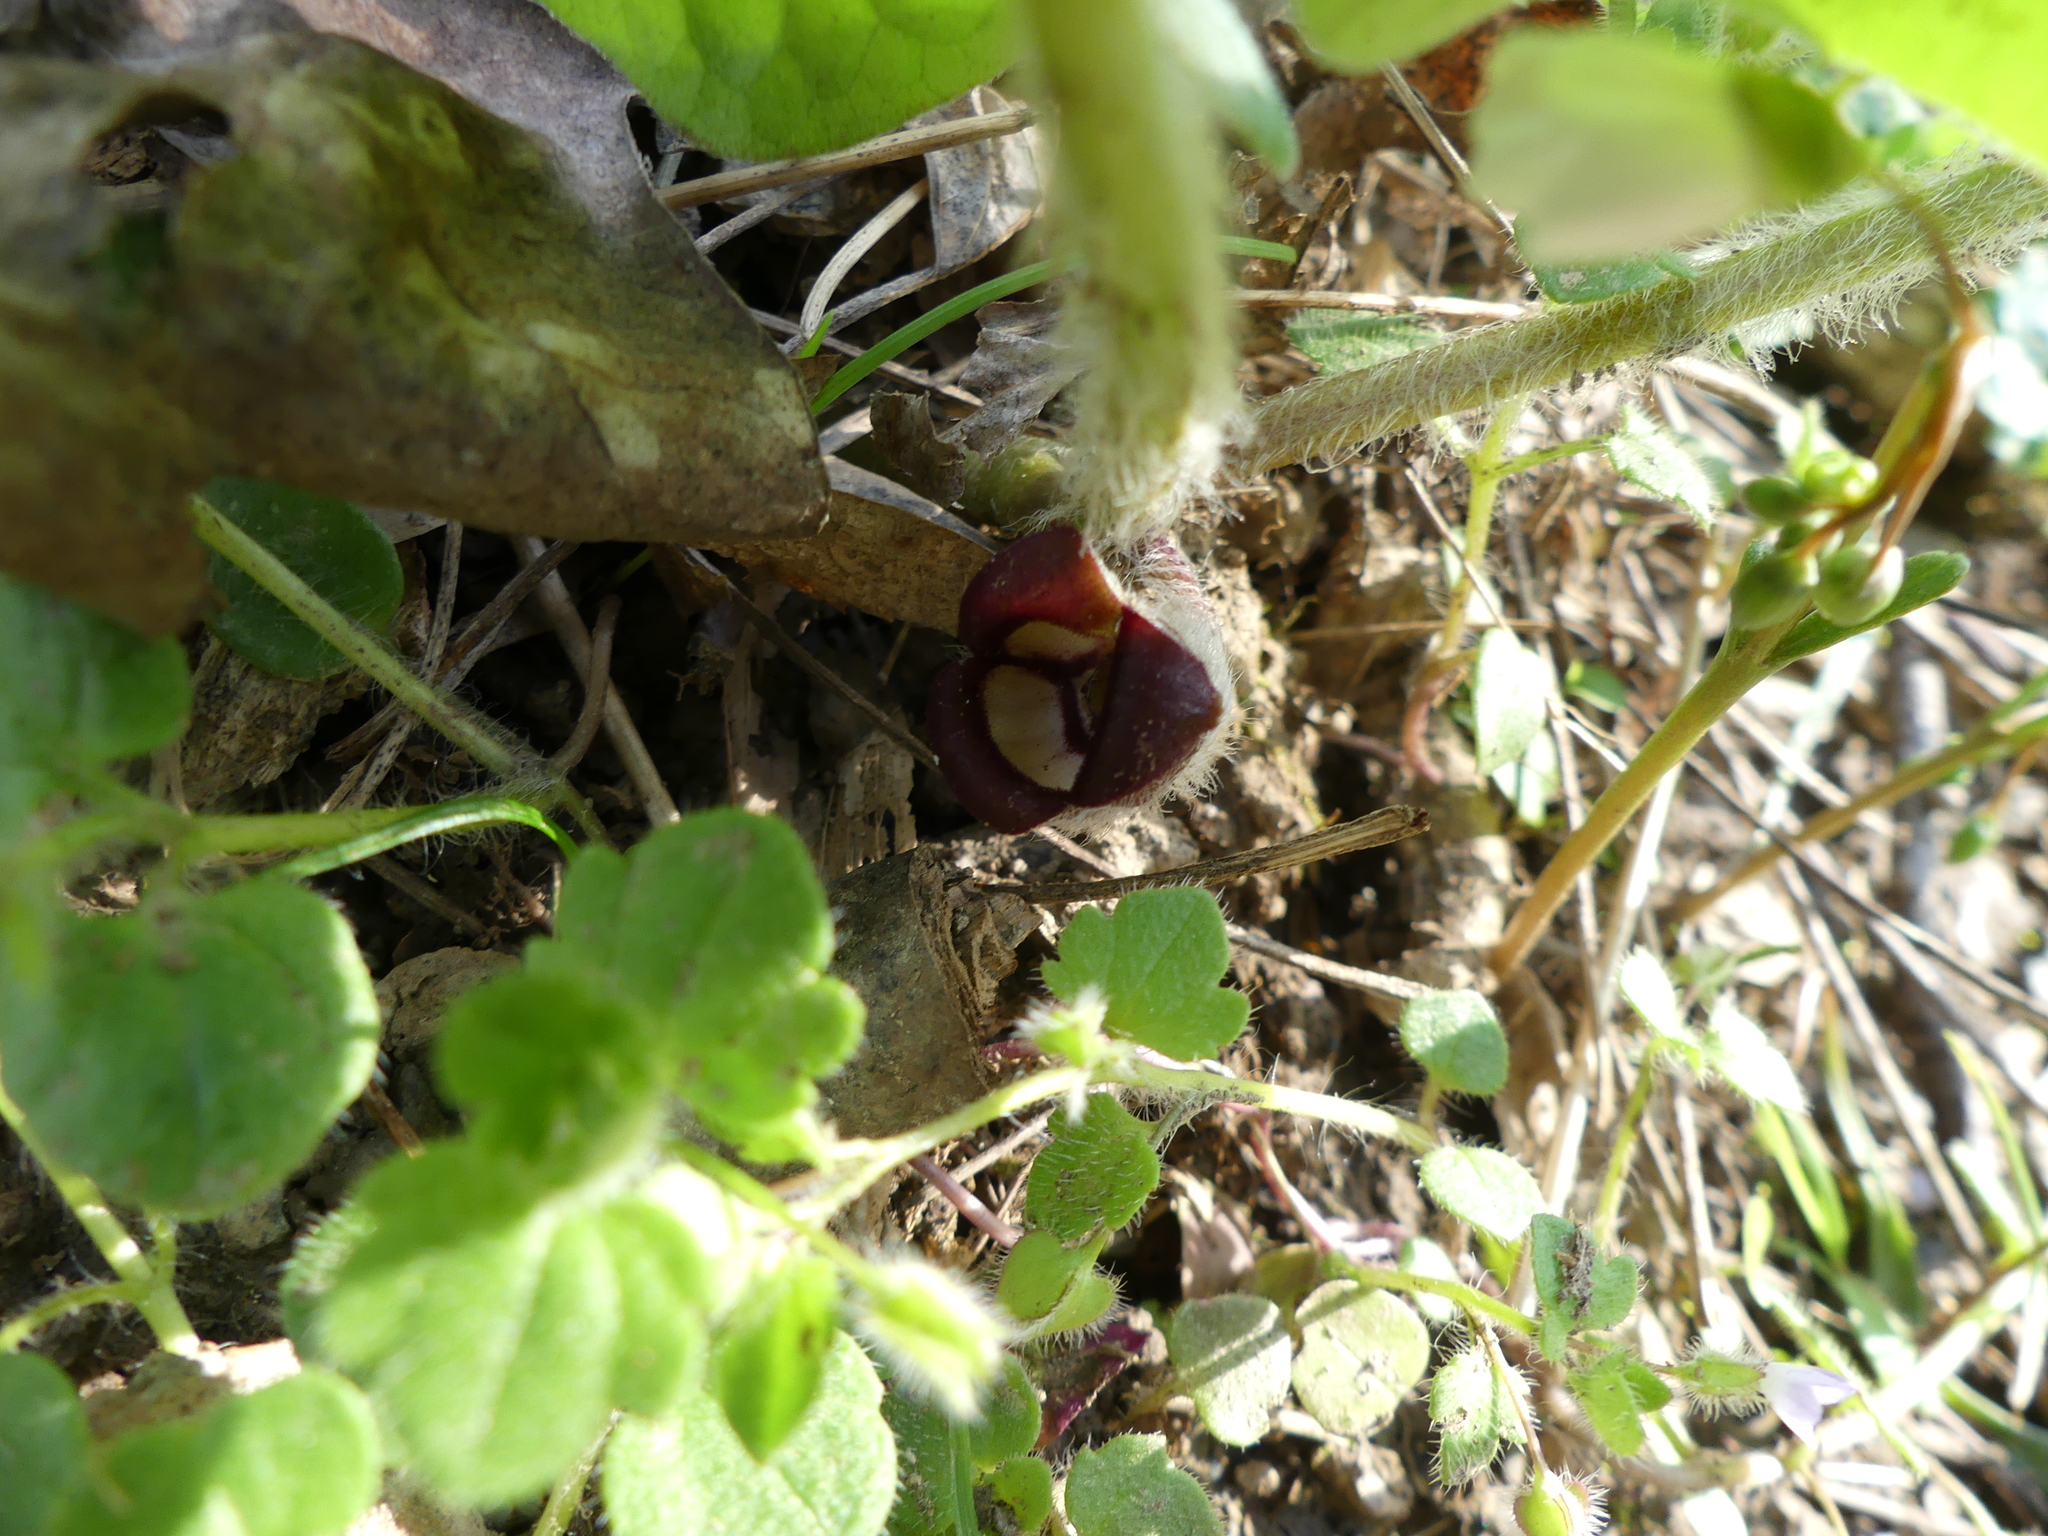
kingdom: Plantae
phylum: Tracheophyta
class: Magnoliopsida
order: Piperales
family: Aristolochiaceae
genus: Asarum
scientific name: Asarum canadense
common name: Wild ginger
